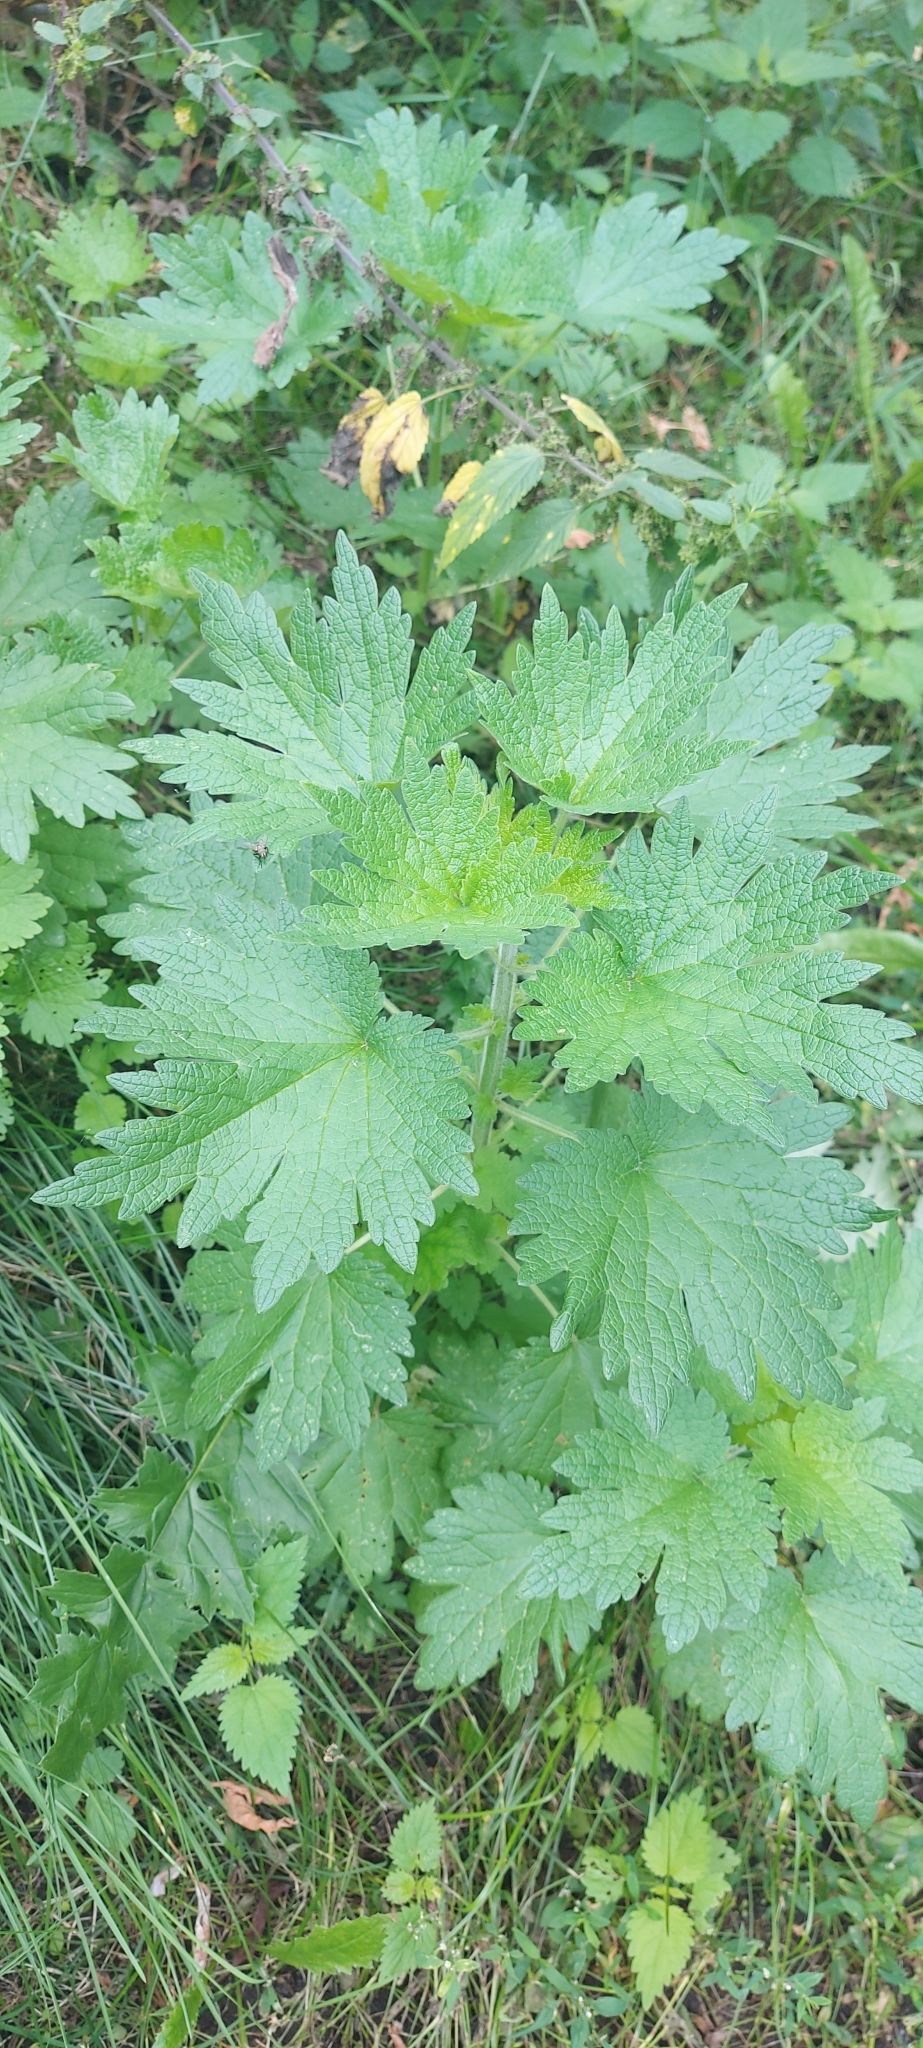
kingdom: Plantae
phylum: Tracheophyta
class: Magnoliopsida
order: Lamiales
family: Lamiaceae
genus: Leonurus
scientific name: Leonurus quinquelobatus
